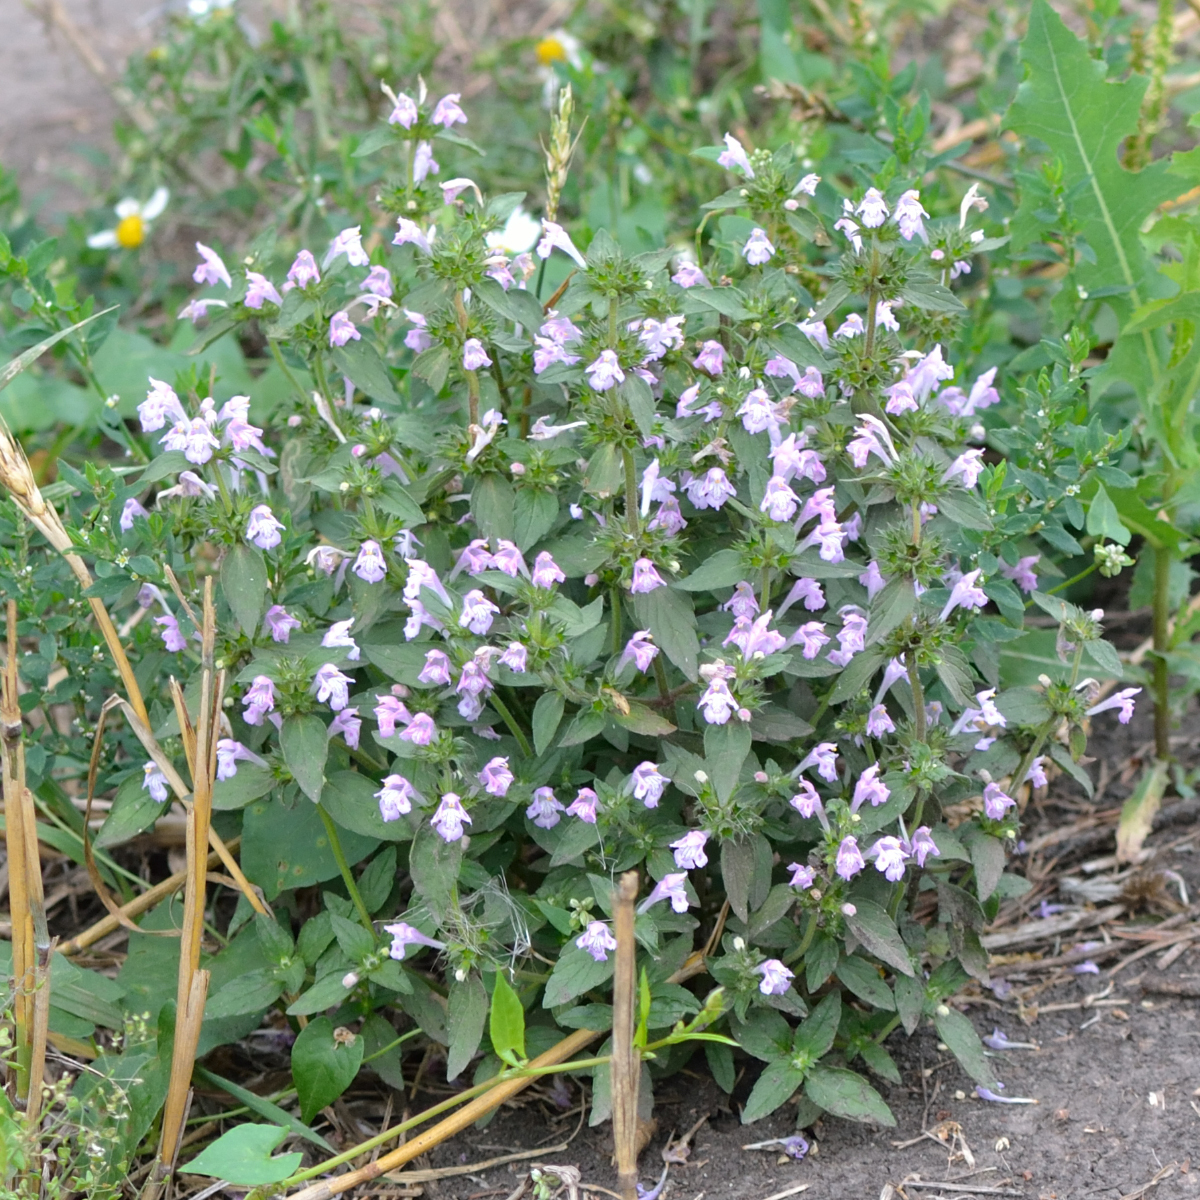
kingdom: Plantae
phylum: Tracheophyta
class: Magnoliopsida
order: Lamiales
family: Lamiaceae
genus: Galeopsis
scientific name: Galeopsis ladanum
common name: Broad-leaved hemp-nettle
